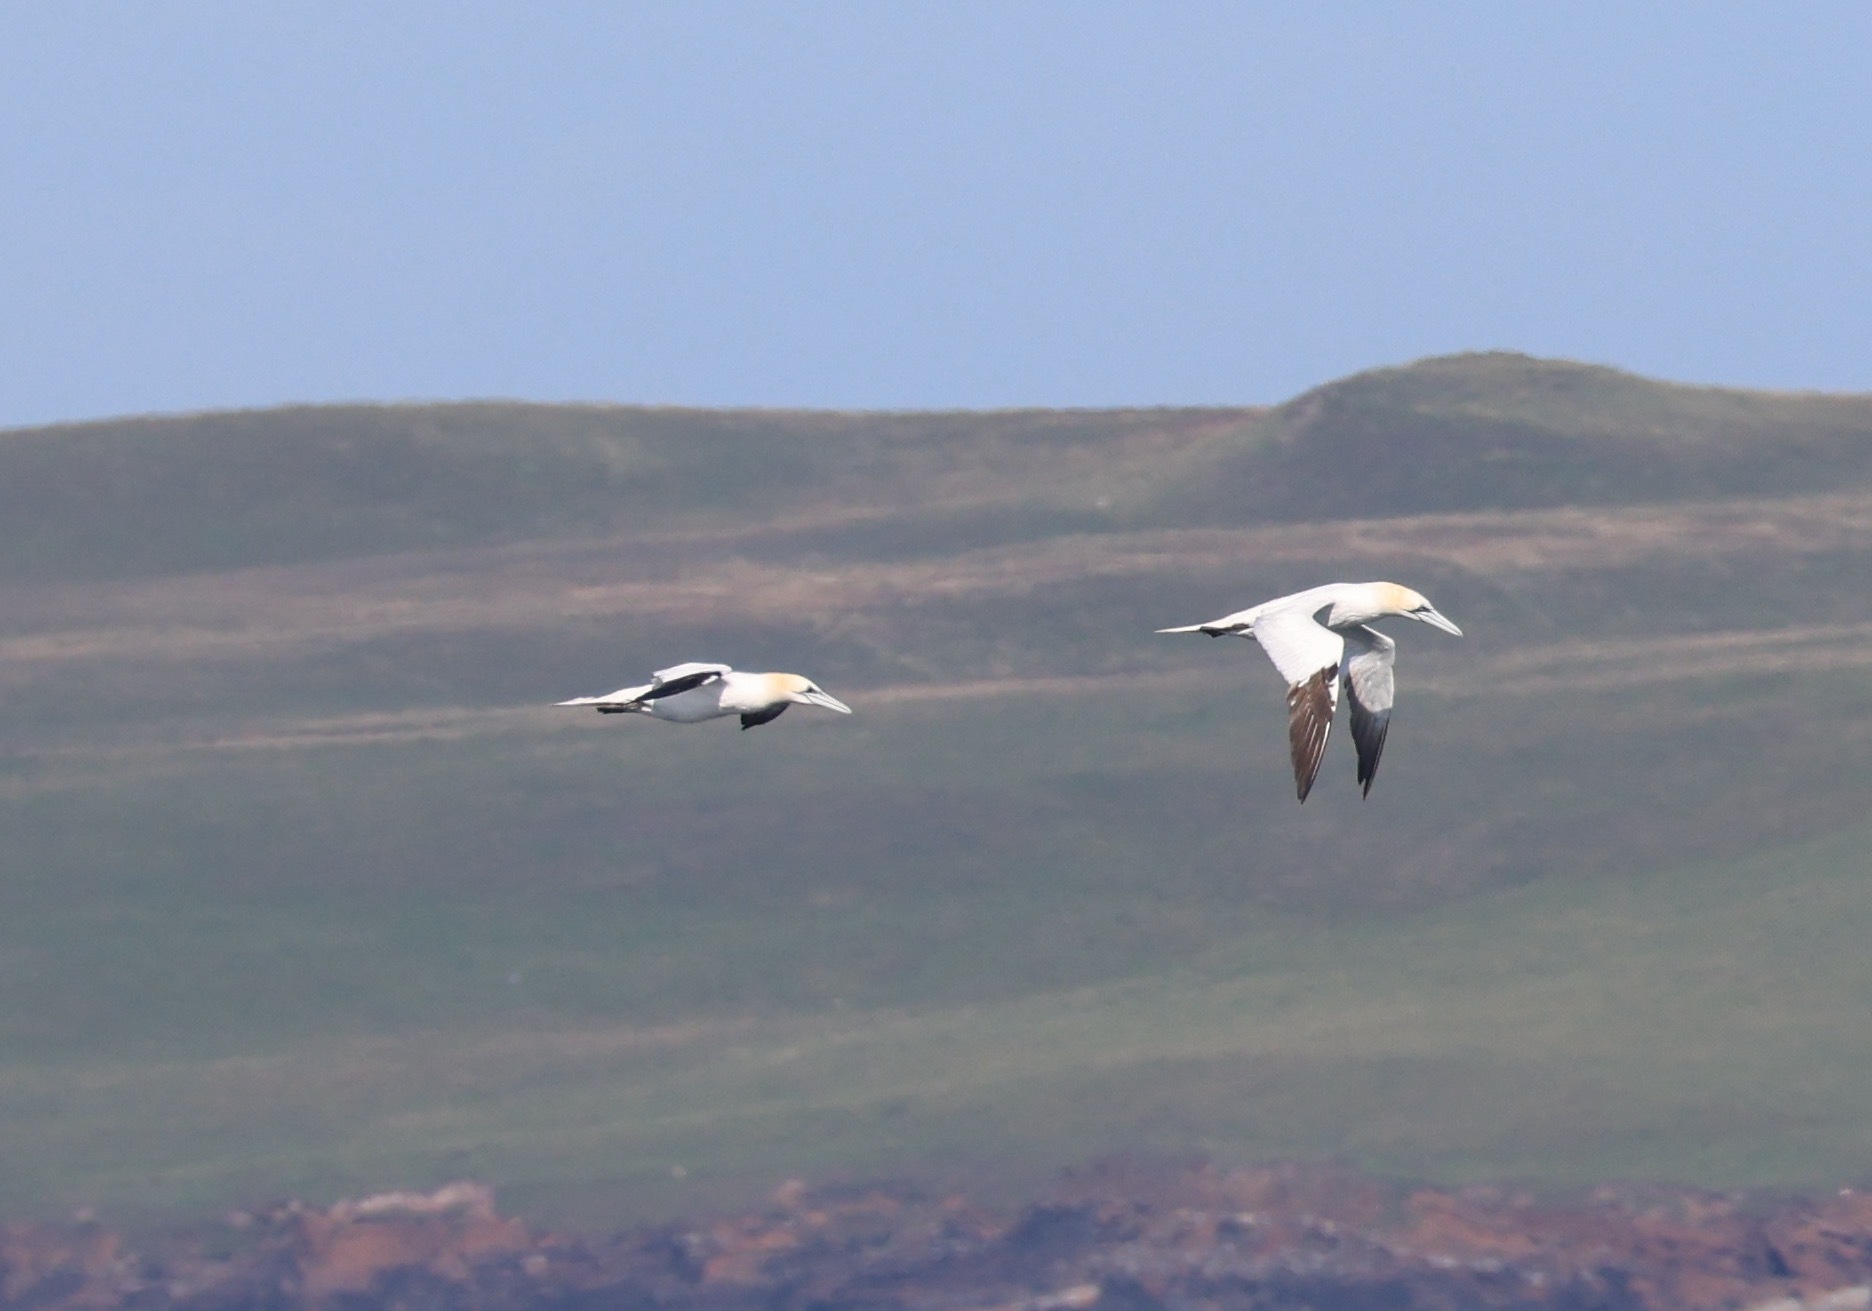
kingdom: Animalia
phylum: Chordata
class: Aves
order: Suliformes
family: Sulidae
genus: Morus
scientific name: Morus bassanus
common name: Northern gannet
